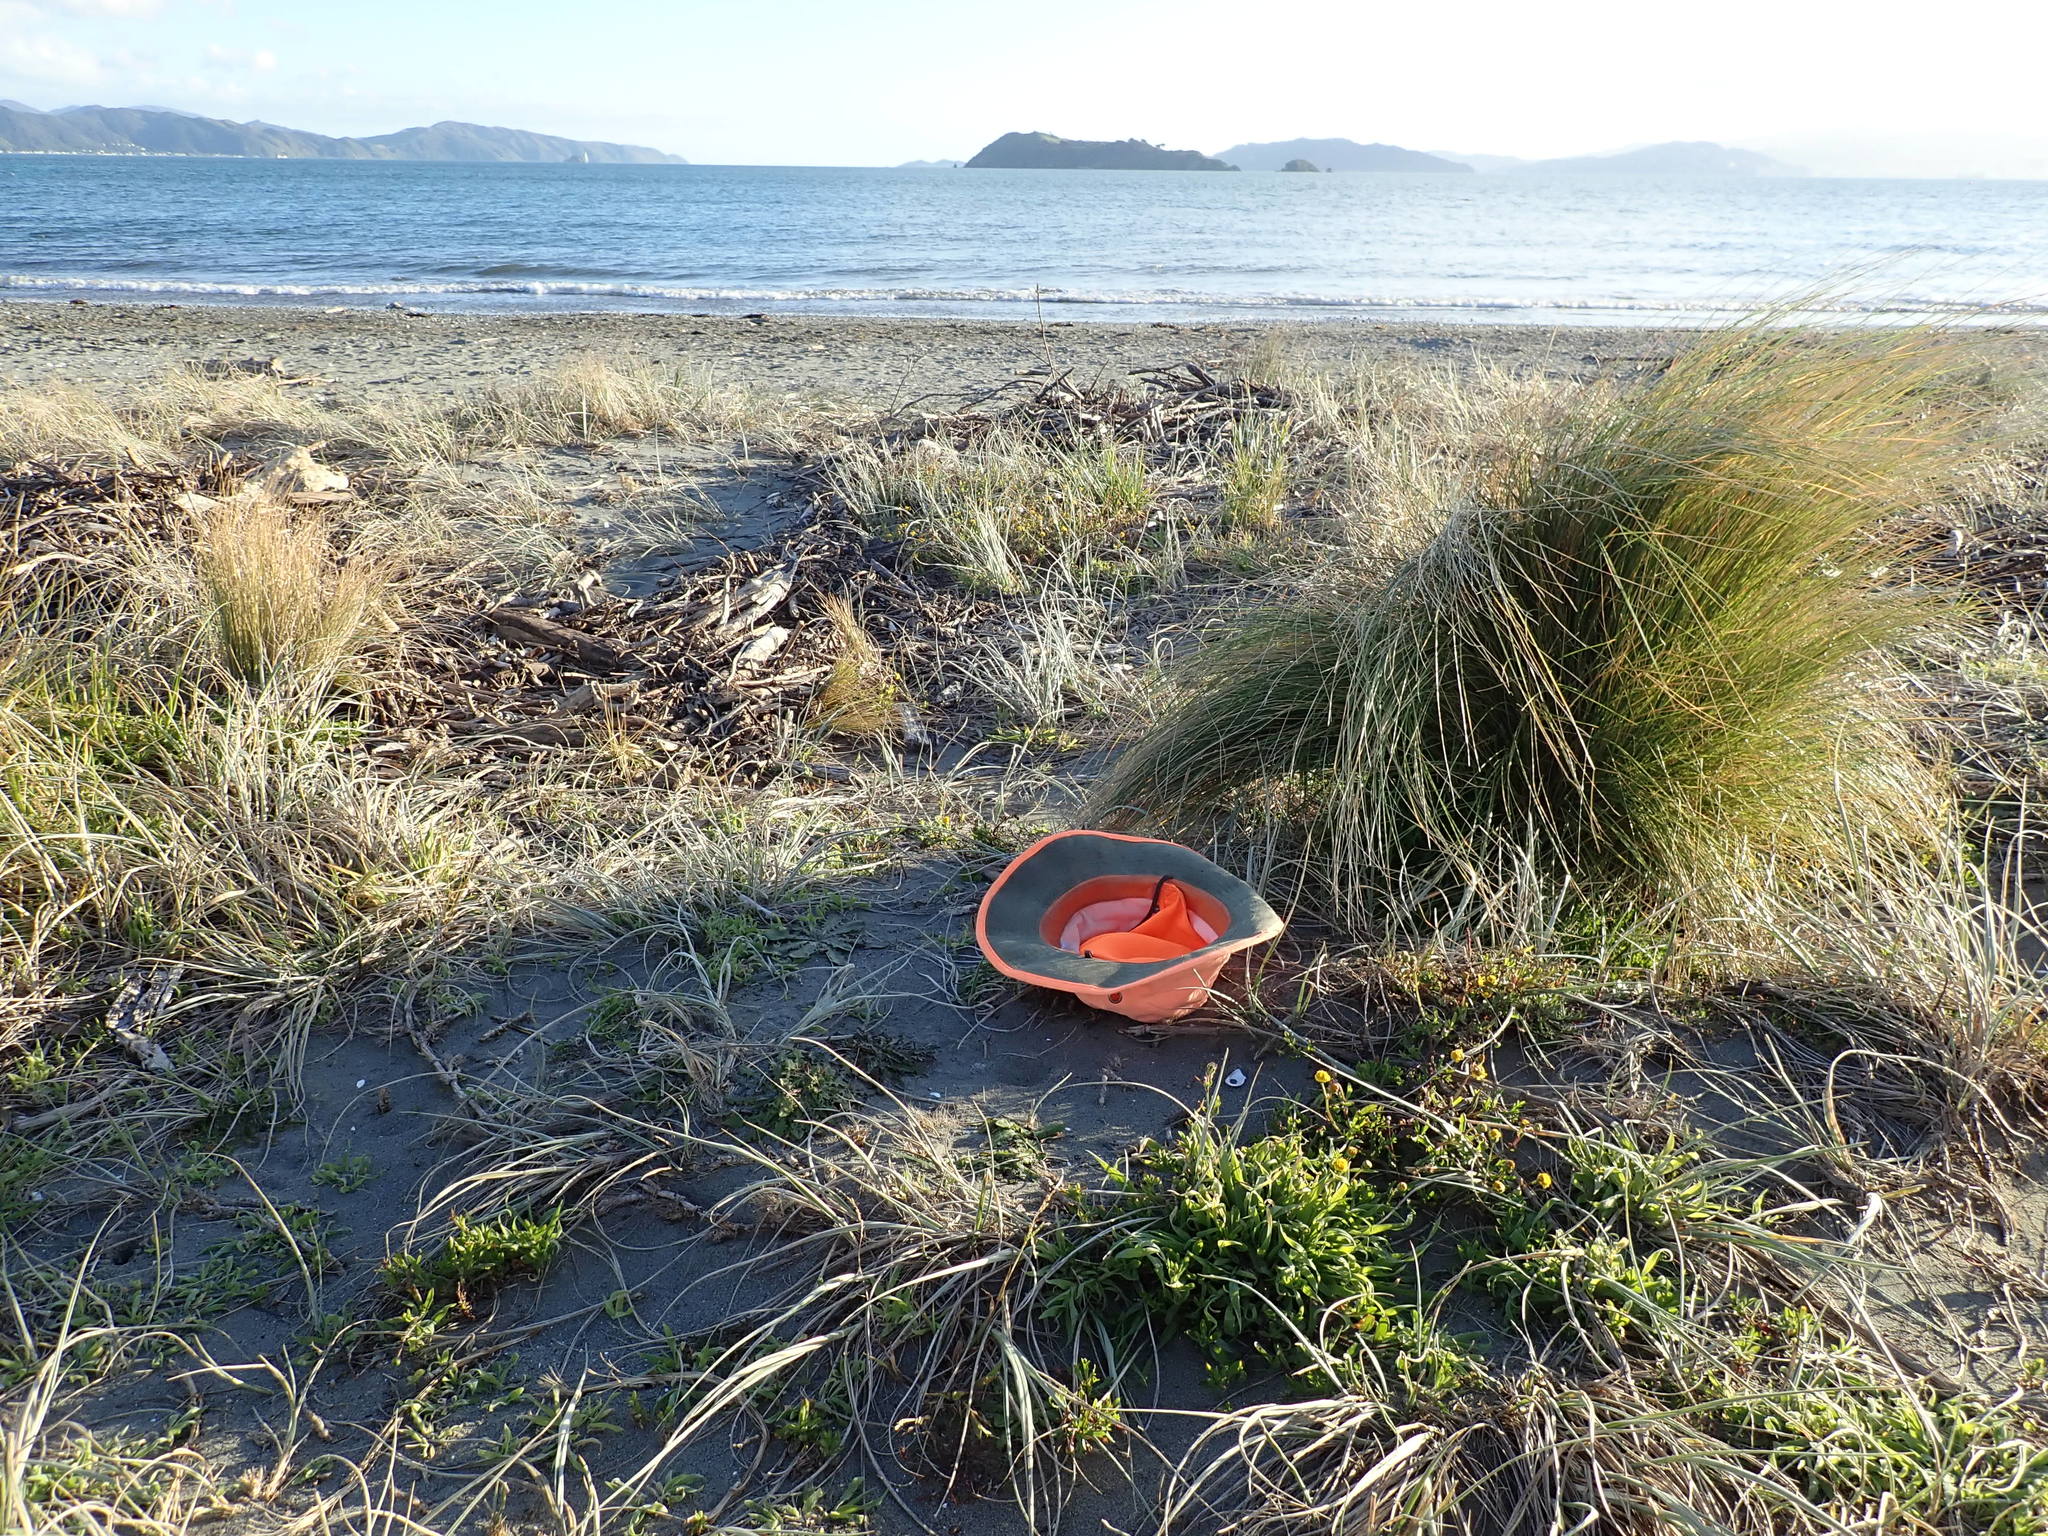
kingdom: Plantae
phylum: Tracheophyta
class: Magnoliopsida
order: Lamiales
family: Plantaginaceae
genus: Plantago
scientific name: Plantago coronopus
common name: Buck's-horn plantain
